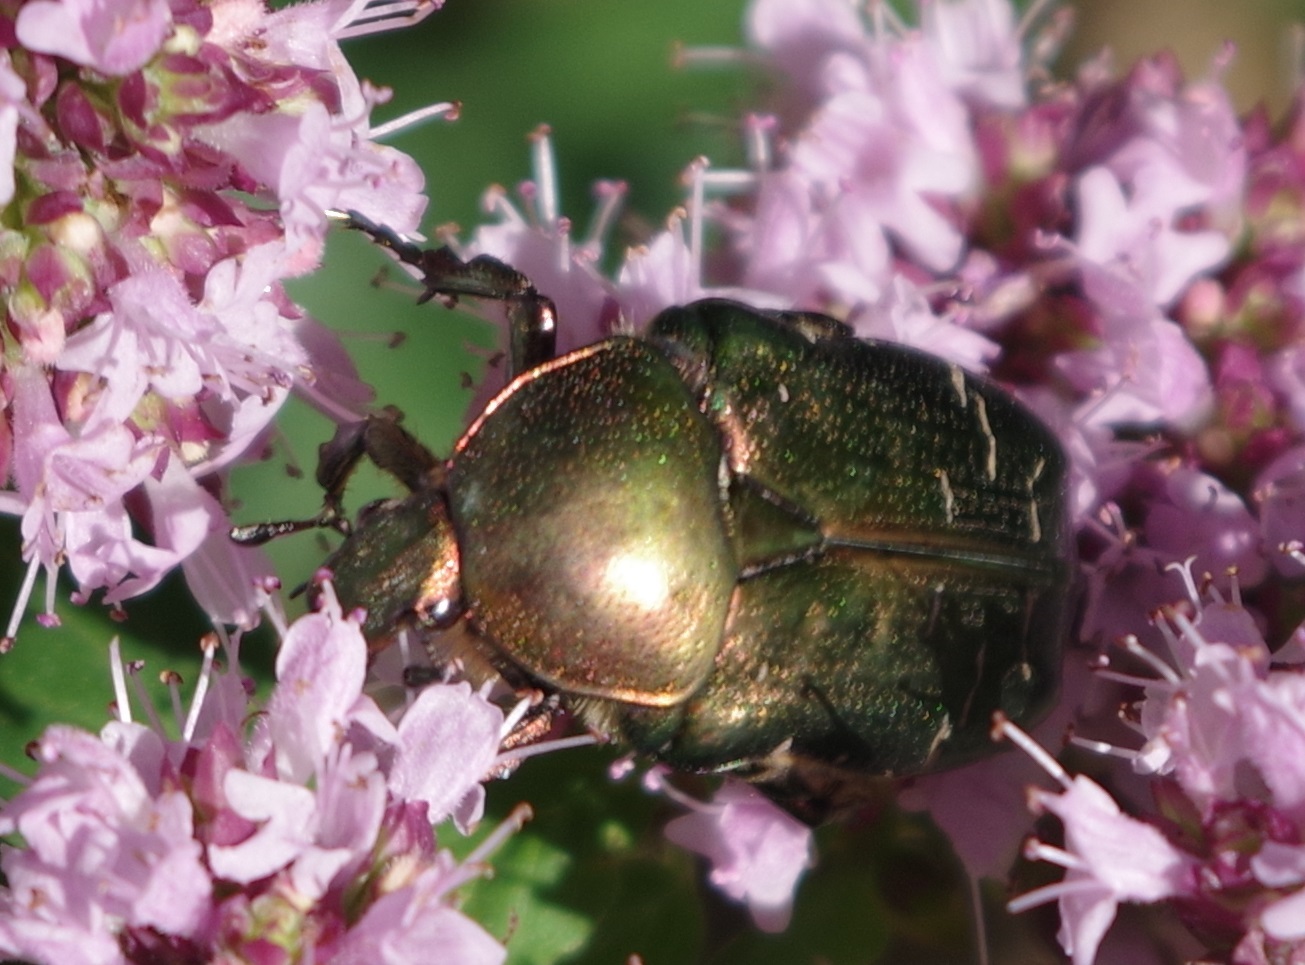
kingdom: Animalia
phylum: Arthropoda
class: Insecta
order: Coleoptera
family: Scarabaeidae
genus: Cetonia
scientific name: Cetonia aurata
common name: Rose chafer
